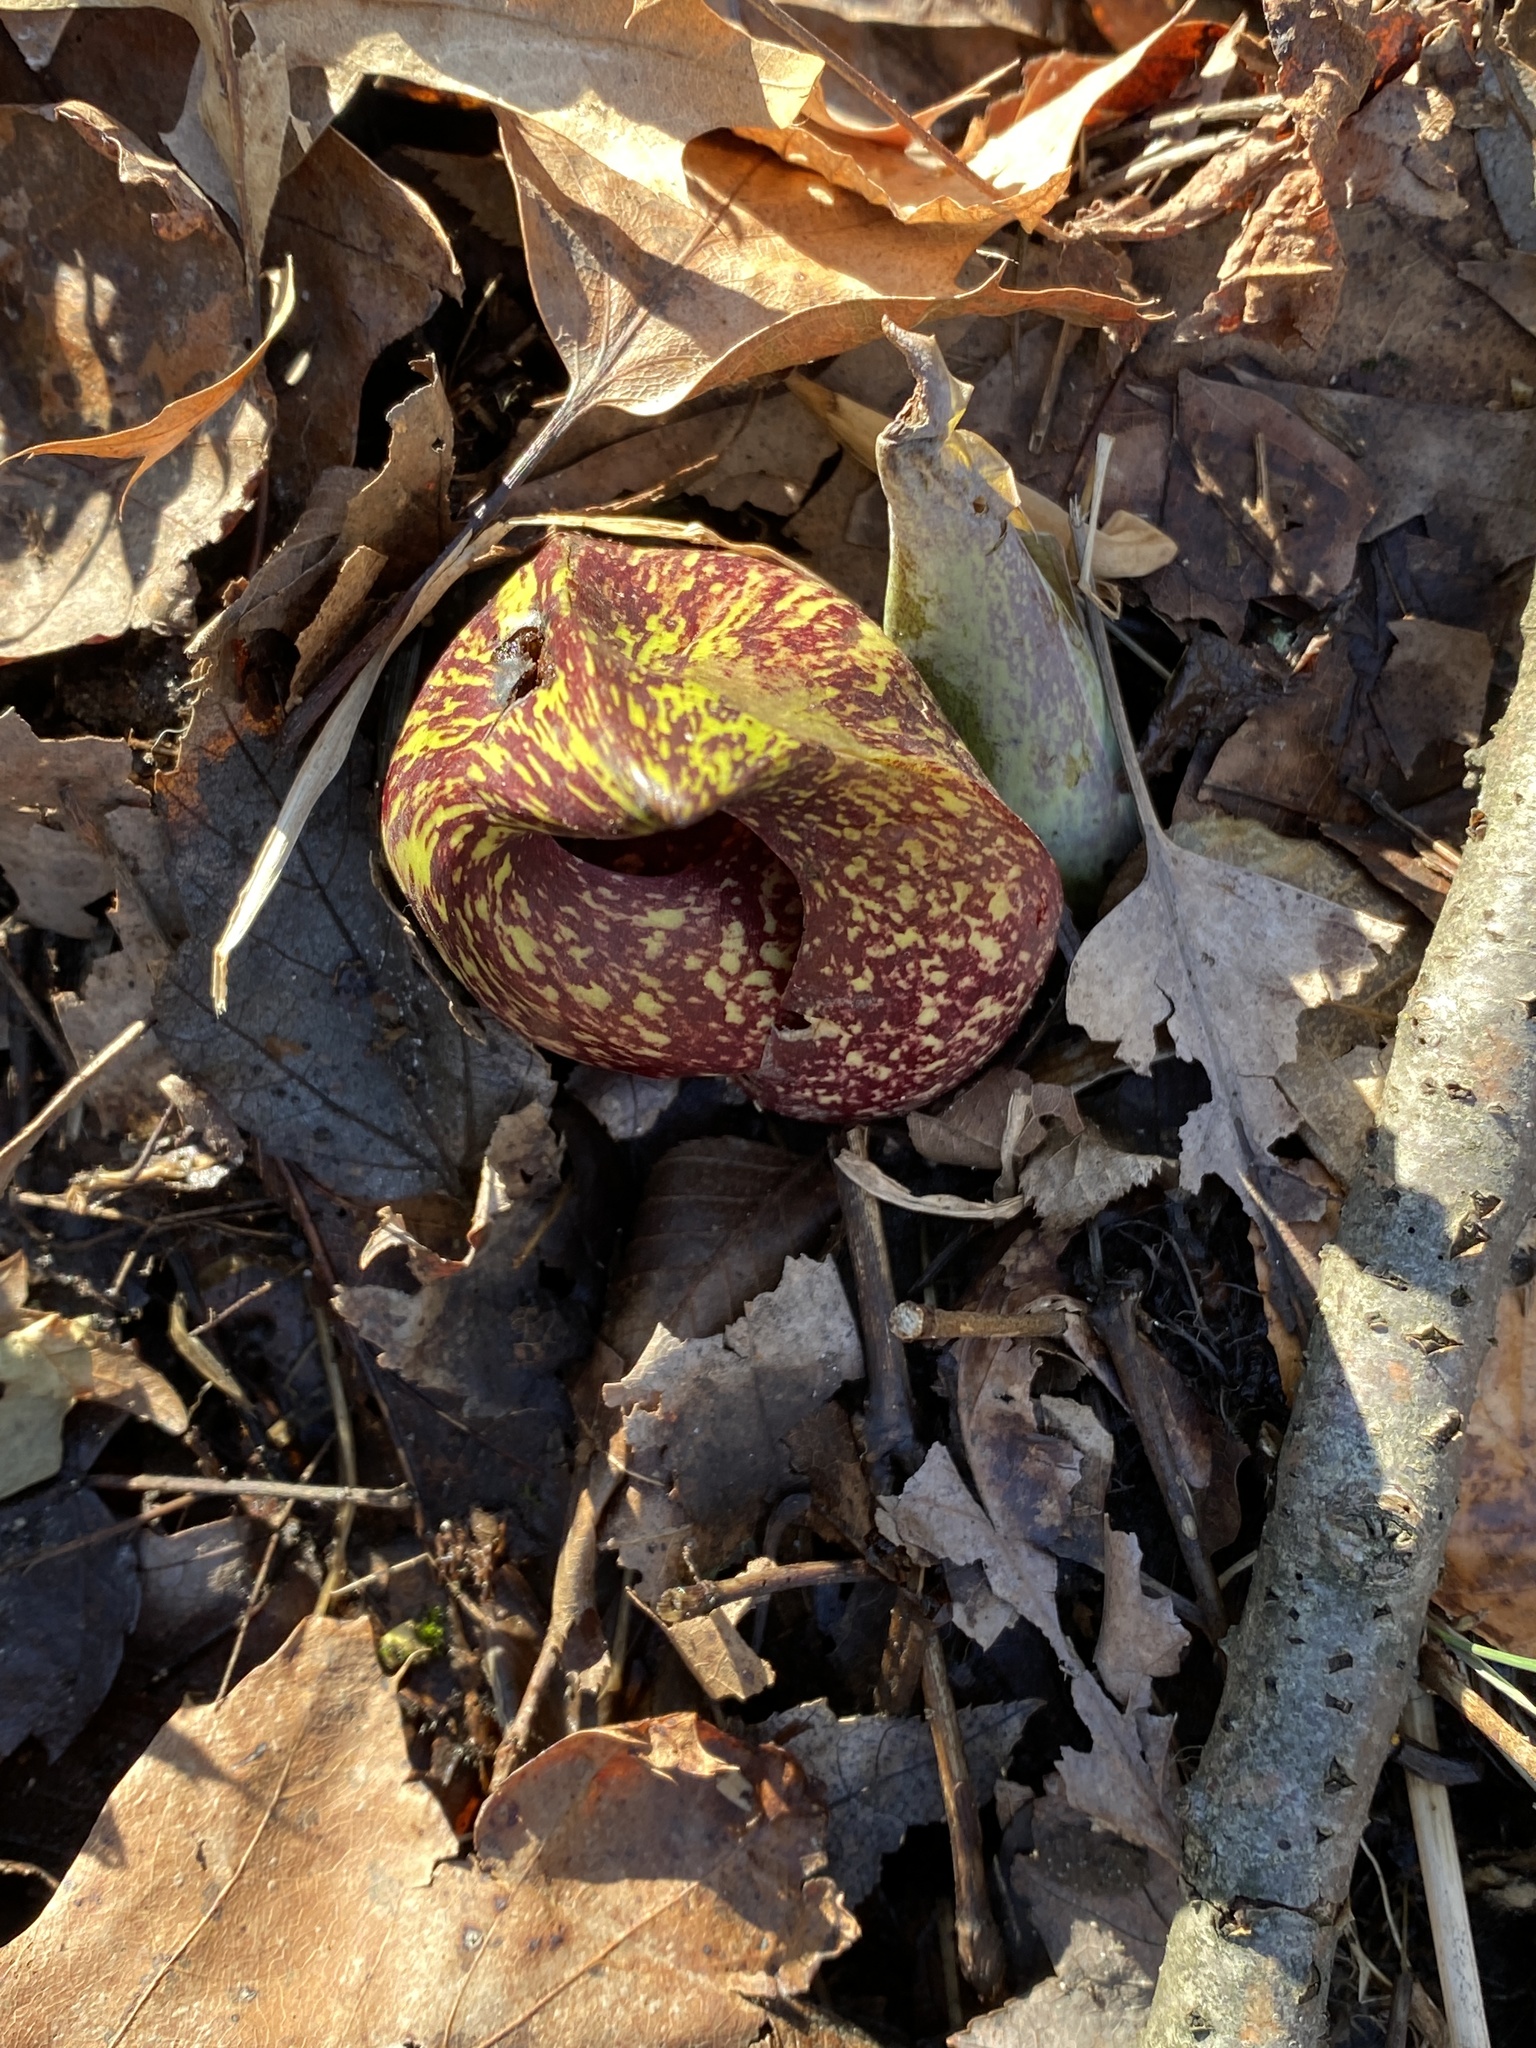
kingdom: Plantae
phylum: Tracheophyta
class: Liliopsida
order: Alismatales
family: Araceae
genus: Symplocarpus
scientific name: Symplocarpus foetidus
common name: Eastern skunk cabbage
